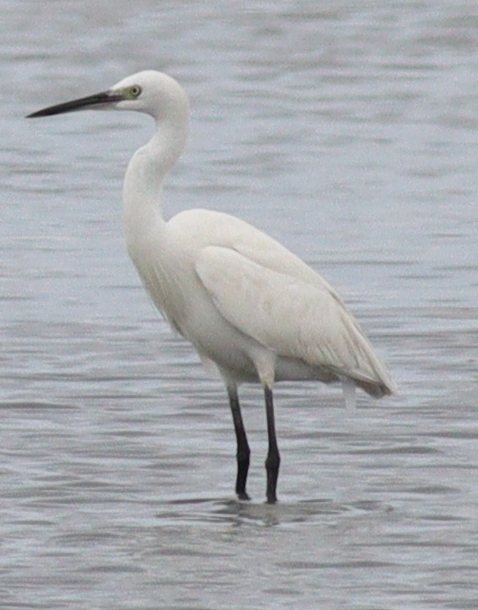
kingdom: Animalia
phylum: Chordata
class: Aves
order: Pelecaniformes
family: Ardeidae
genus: Egretta
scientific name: Egretta garzetta
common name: Little egret
